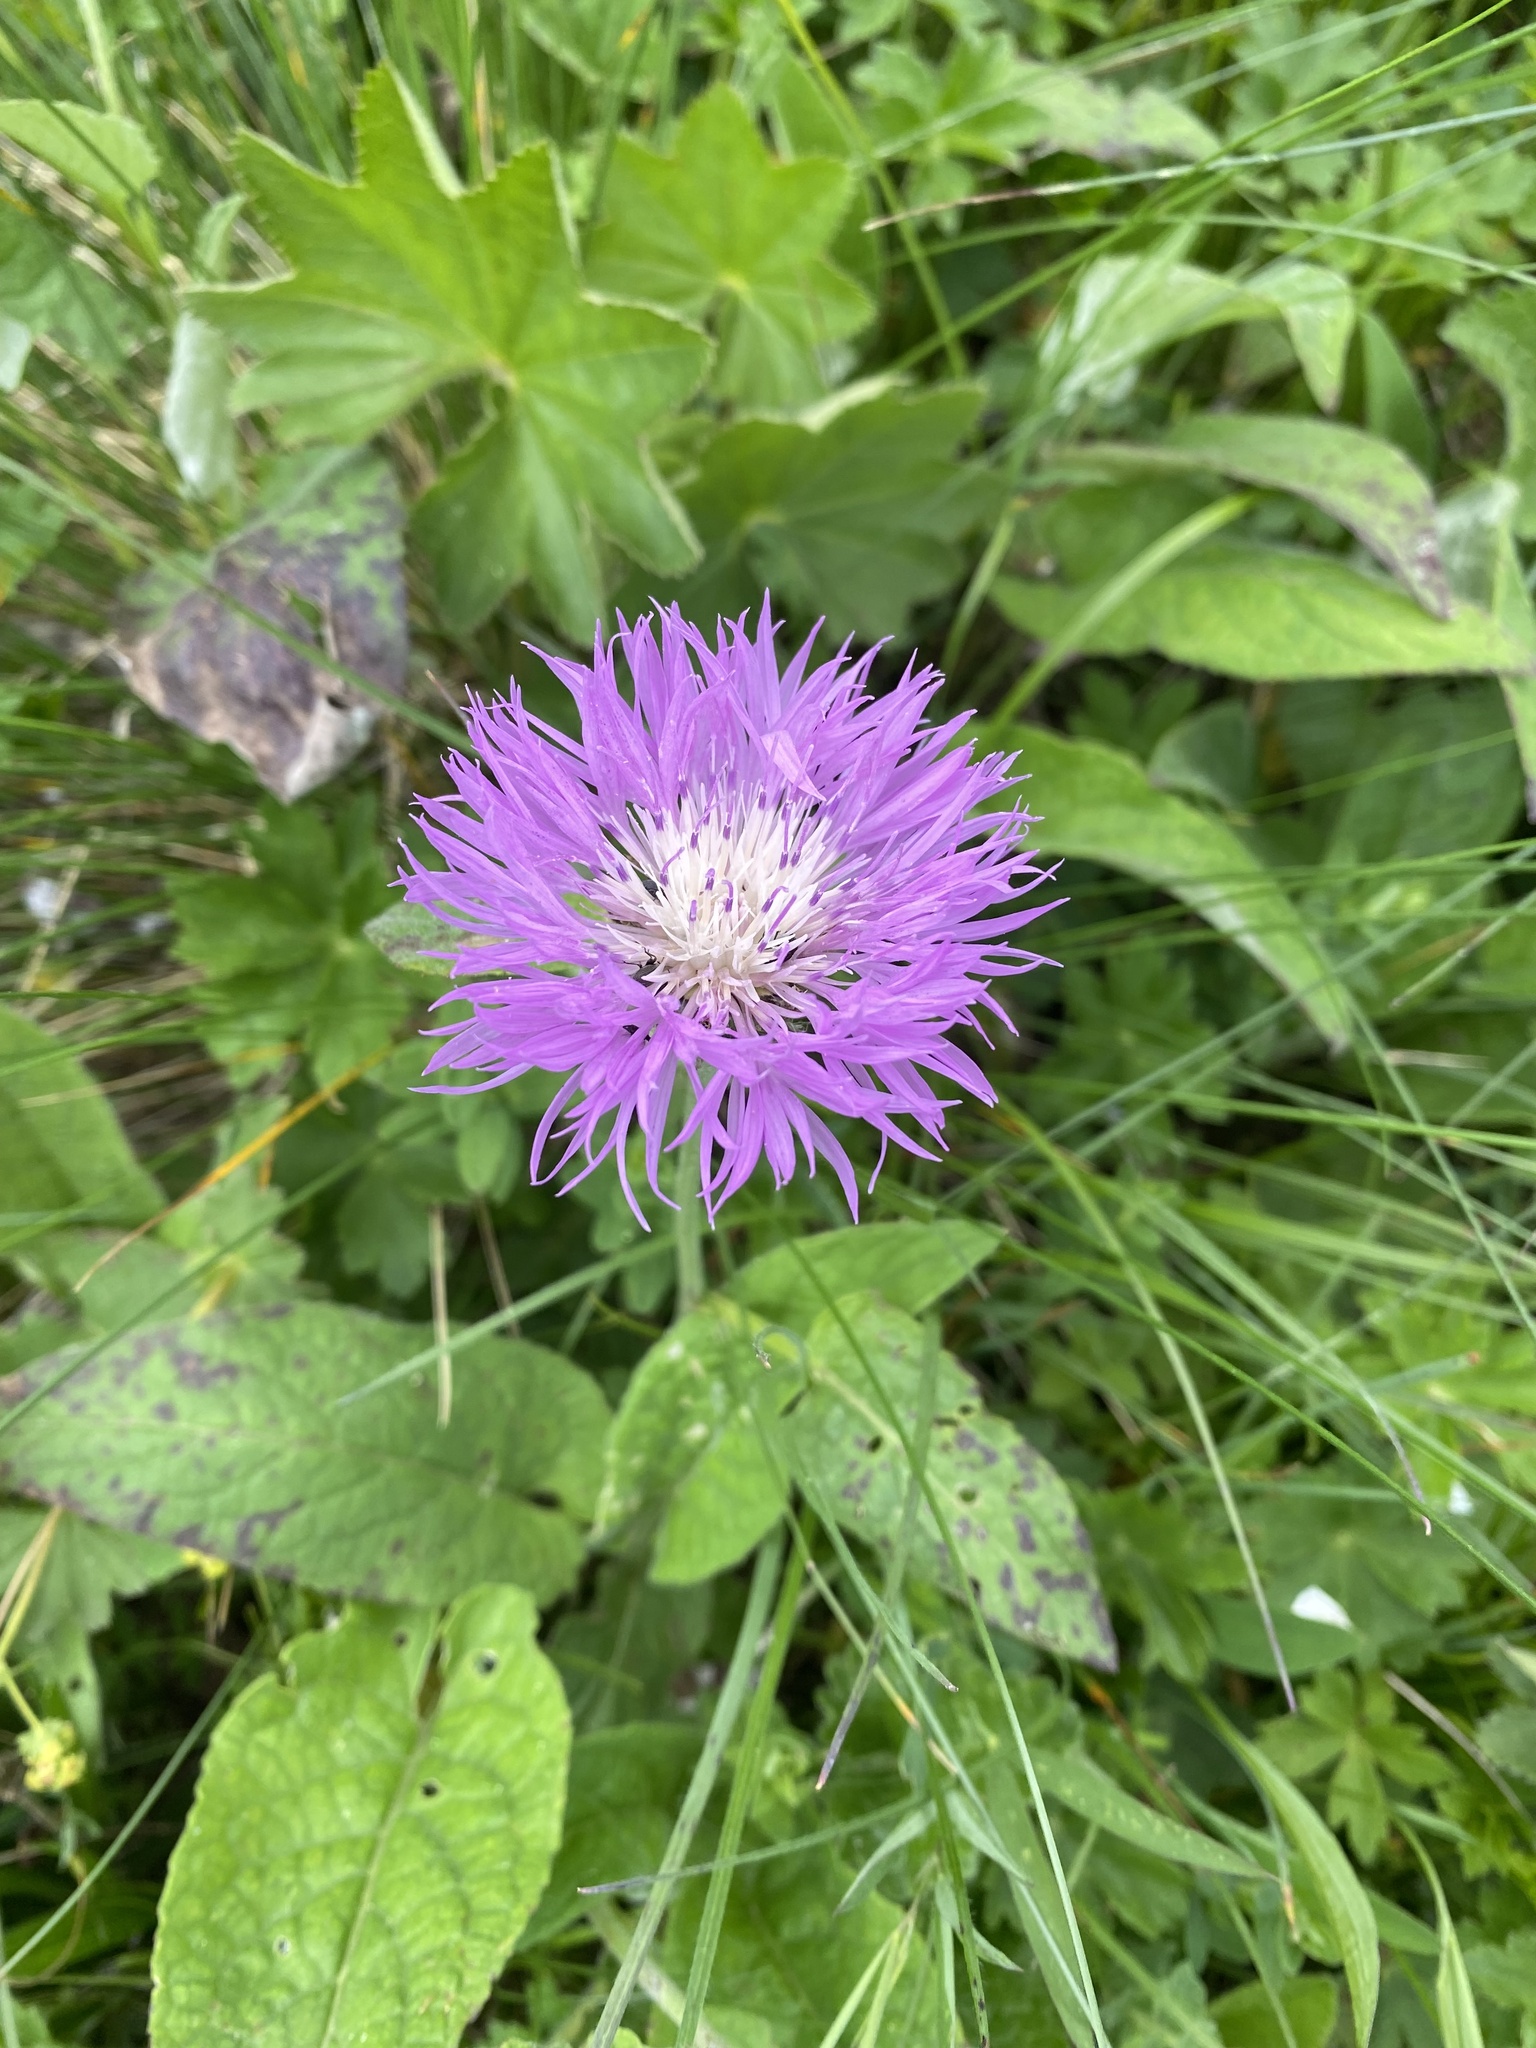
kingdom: Plantae
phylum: Tracheophyta
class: Magnoliopsida
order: Asterales
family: Asteraceae
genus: Psephellus
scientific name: Psephellus dealbatus
